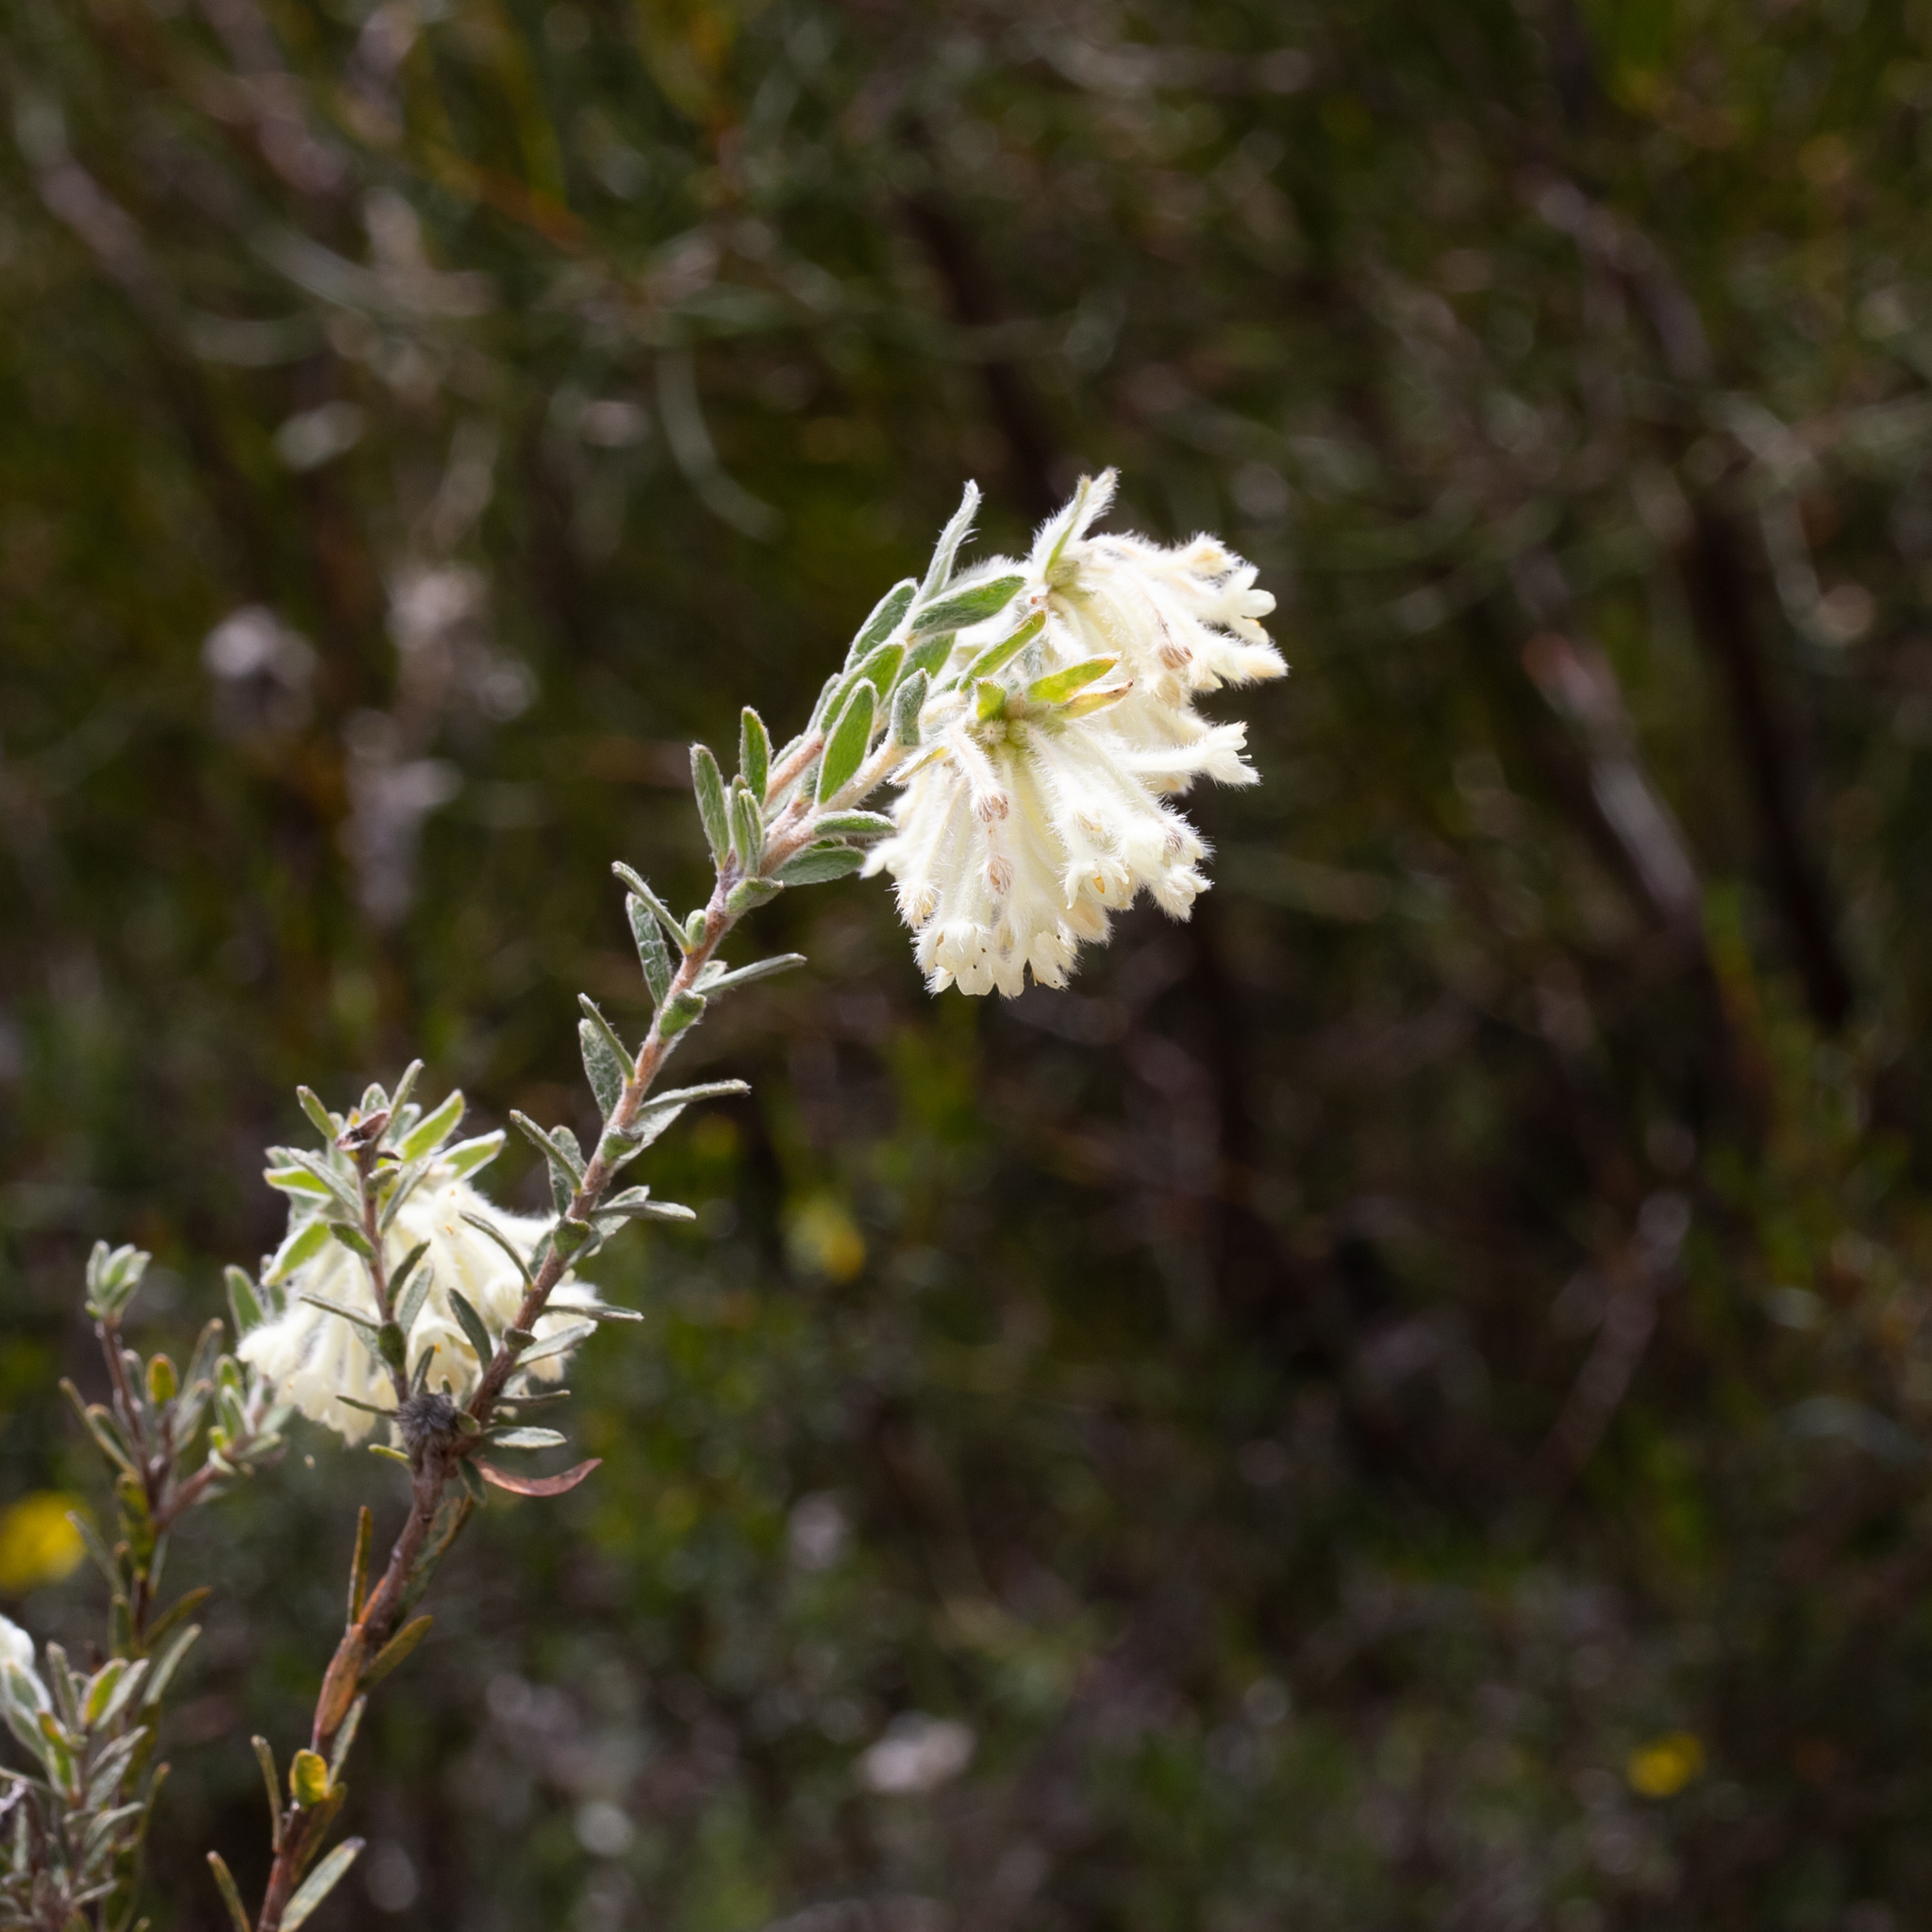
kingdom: Plantae
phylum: Tracheophyta
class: Magnoliopsida
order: Malvales
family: Thymelaeaceae
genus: Pimelea
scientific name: Pimelea octophylla
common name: Woolly riceflower
